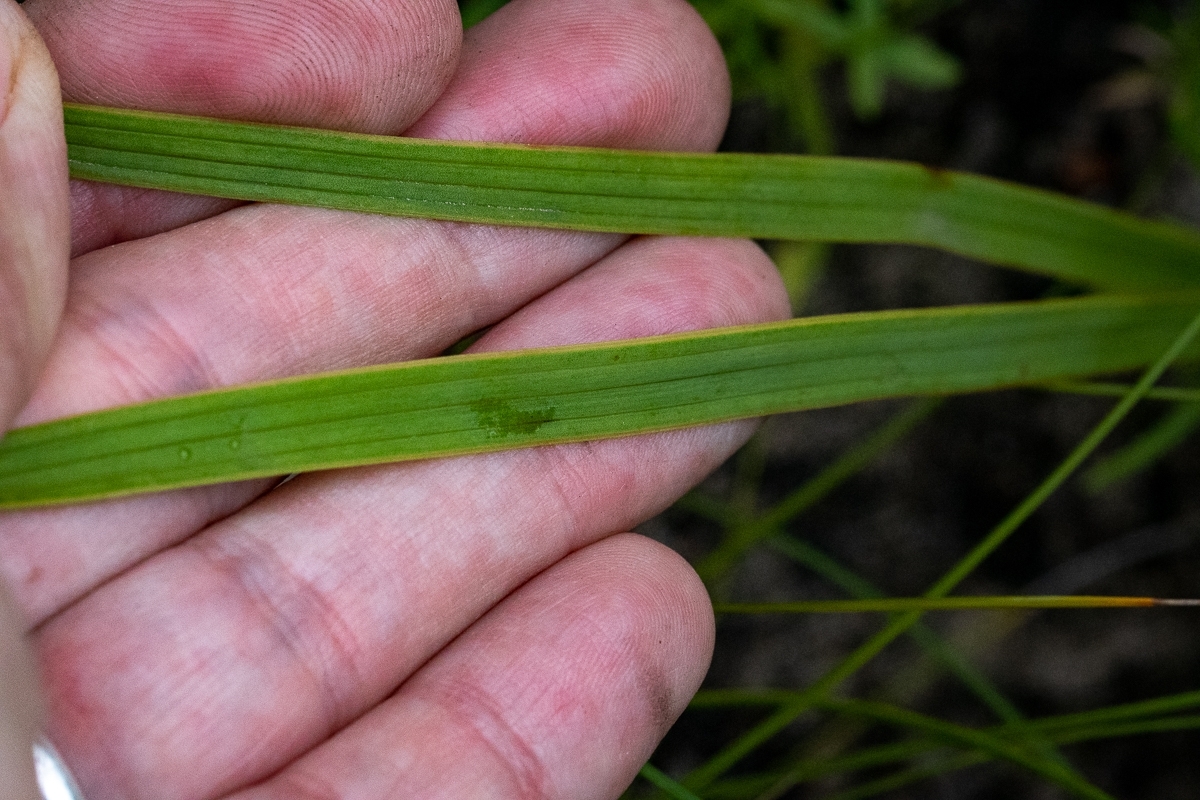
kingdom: Plantae
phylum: Tracheophyta
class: Magnoliopsida
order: Asterales
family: Asteraceae
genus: Corymbium
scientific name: Corymbium glabrum
